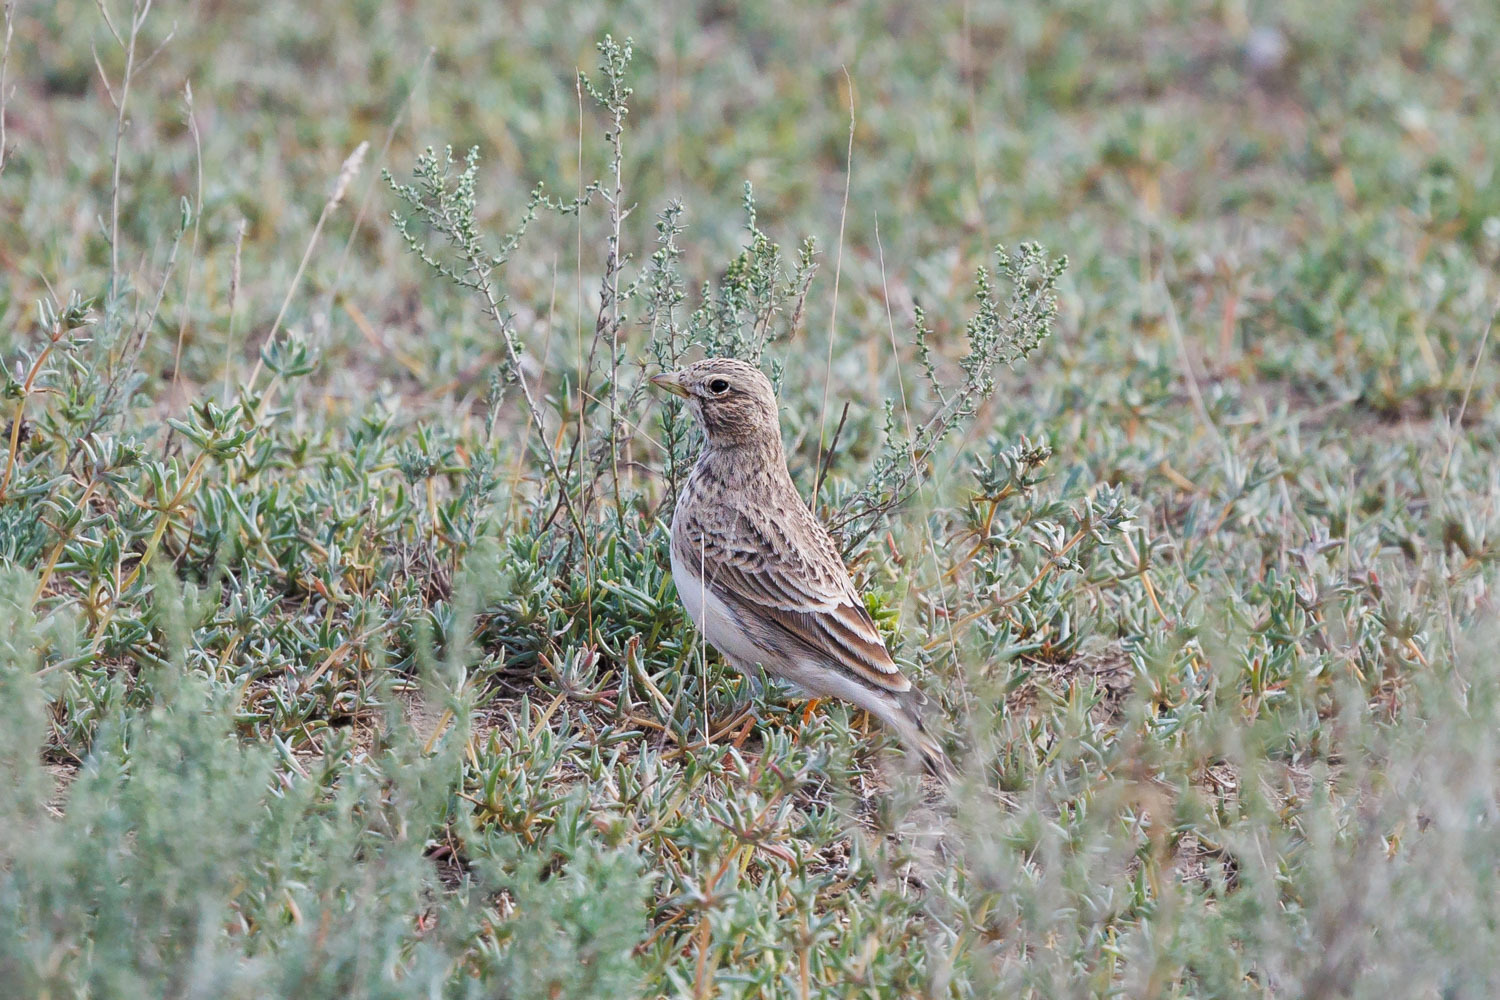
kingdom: Animalia
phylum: Chordata
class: Aves
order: Passeriformes
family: Alaudidae
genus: Calandrella
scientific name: Calandrella rufescens
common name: Lesser short-toed lark
